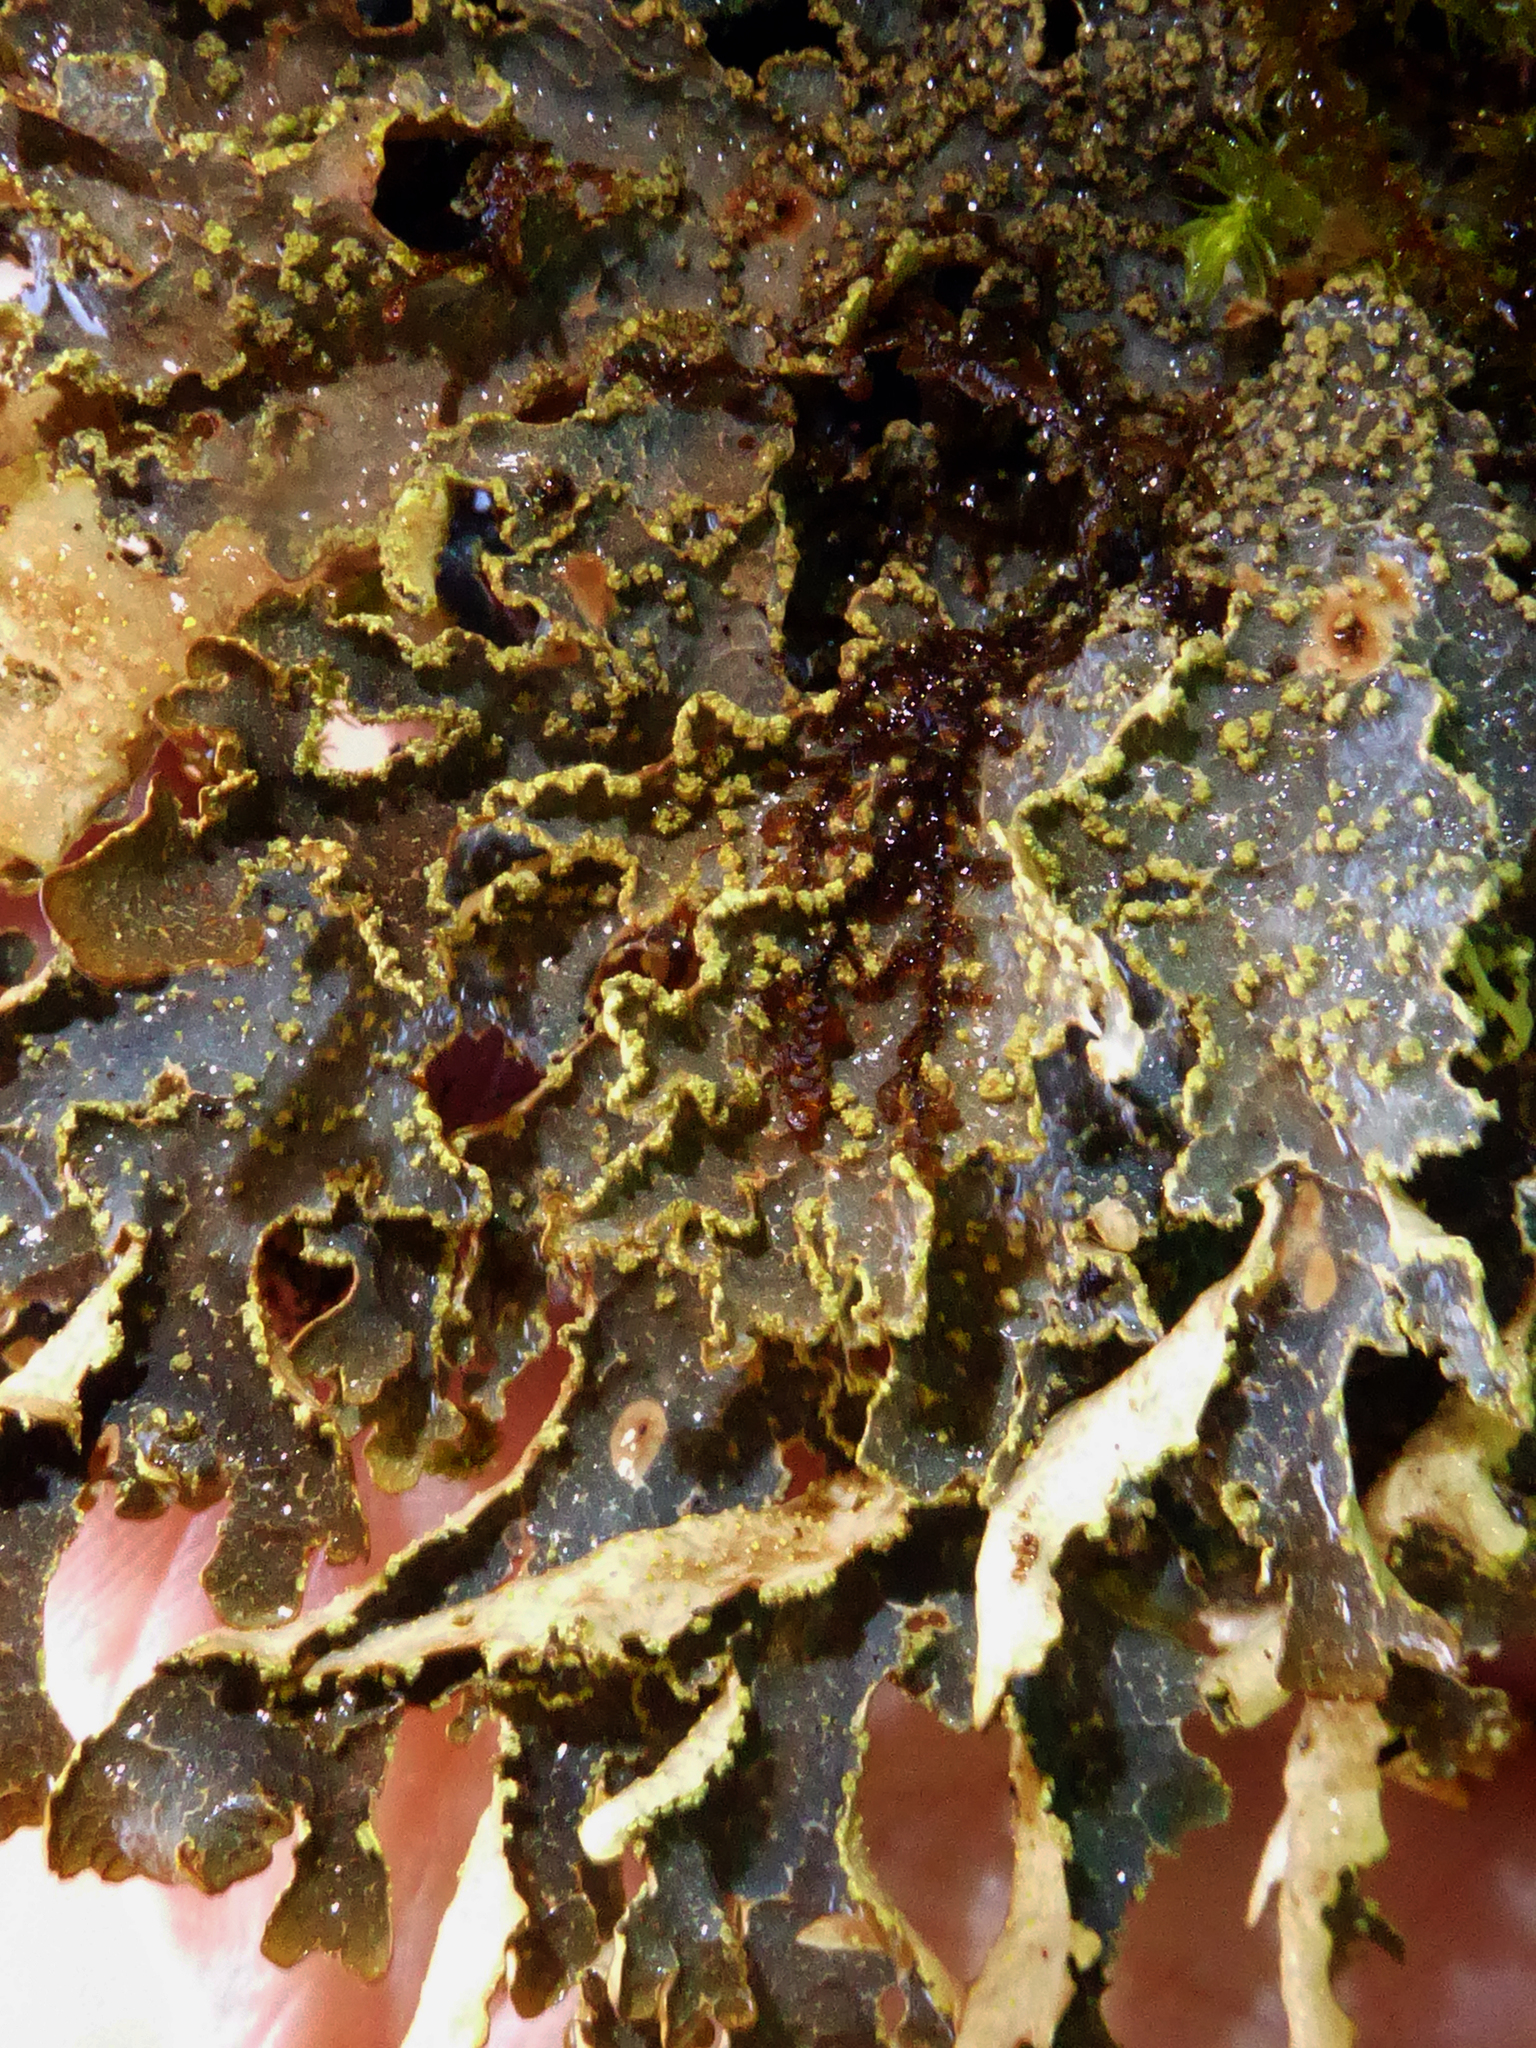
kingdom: Fungi
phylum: Ascomycota
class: Lecanoromycetes
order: Peltigerales
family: Lobariaceae
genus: Pseudocyphellaria
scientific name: Pseudocyphellaria neglecta
